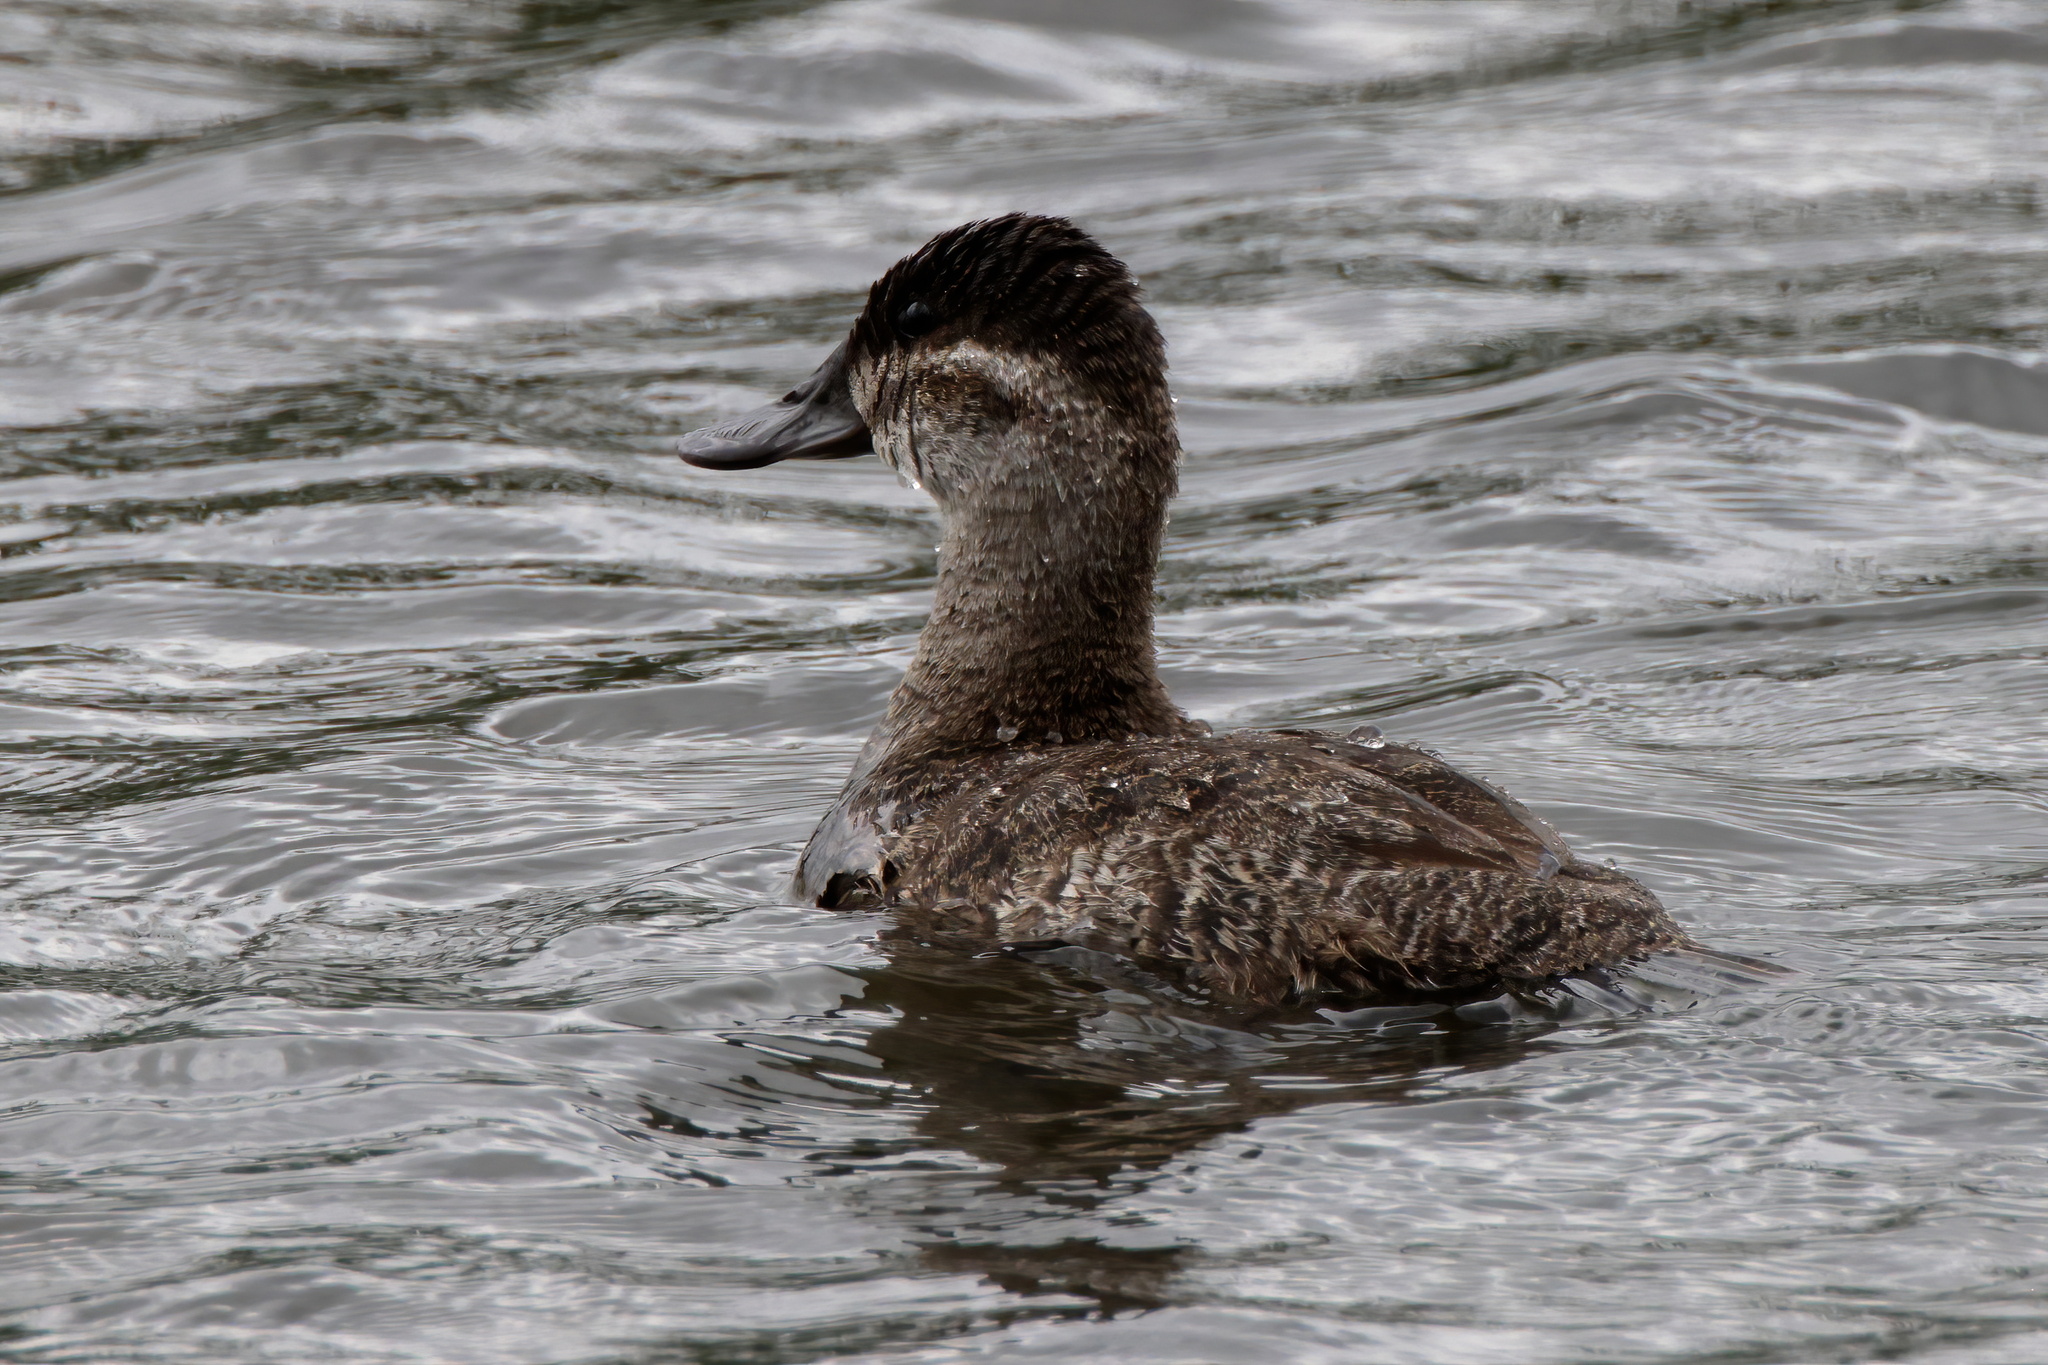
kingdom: Animalia
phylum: Chordata
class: Aves
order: Anseriformes
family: Anatidae
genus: Oxyura
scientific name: Oxyura jamaicensis
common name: Ruddy duck
